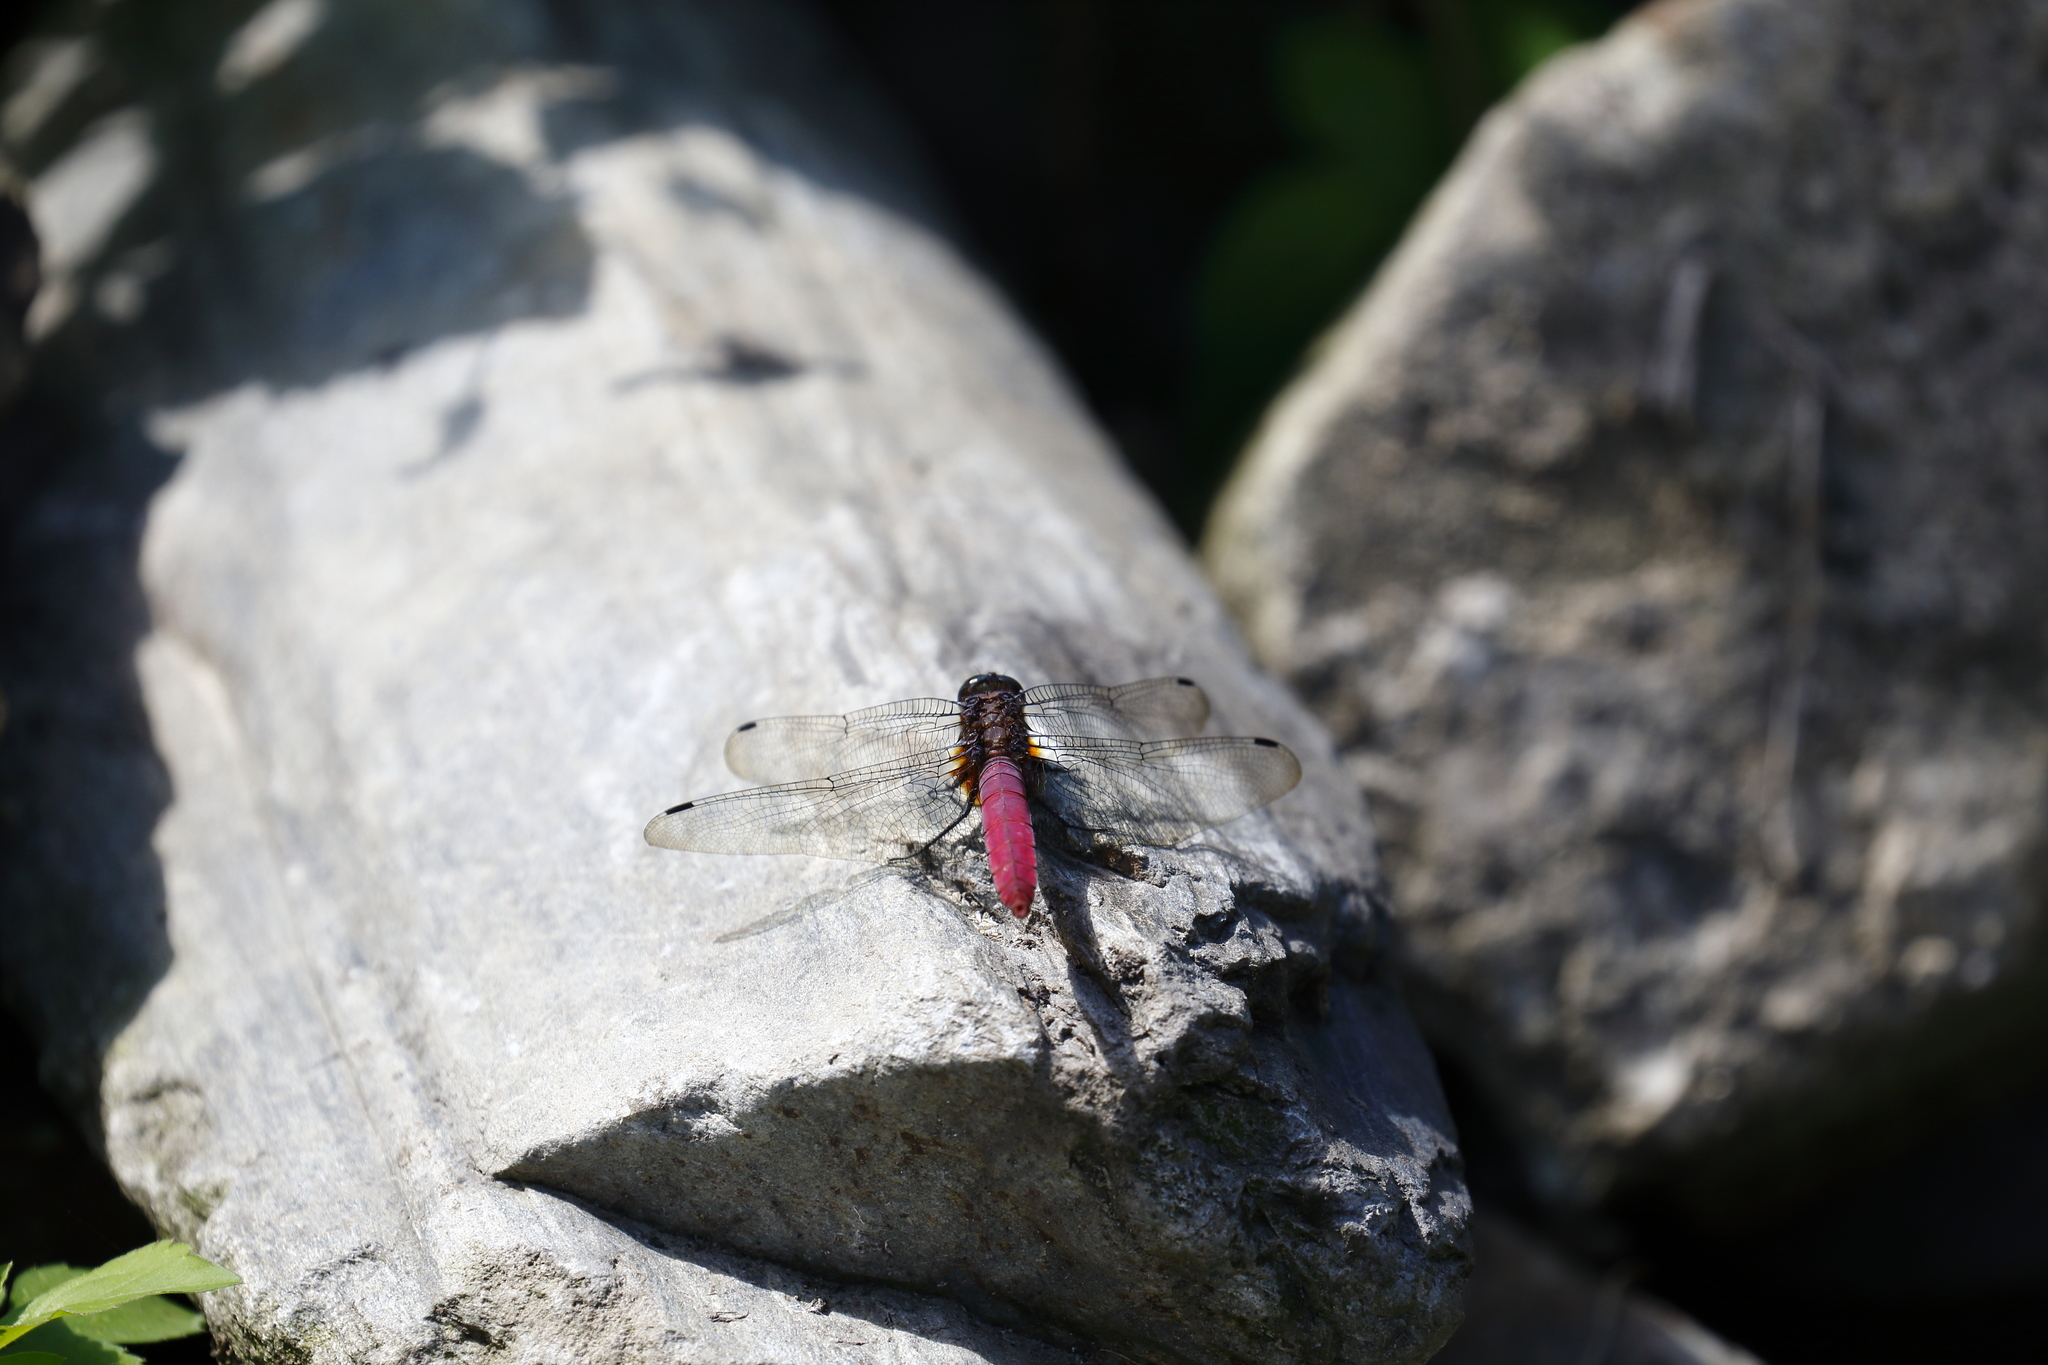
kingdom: Animalia
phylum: Arthropoda
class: Insecta
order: Odonata
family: Libellulidae
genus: Orthetrum
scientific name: Orthetrum pruinosum
